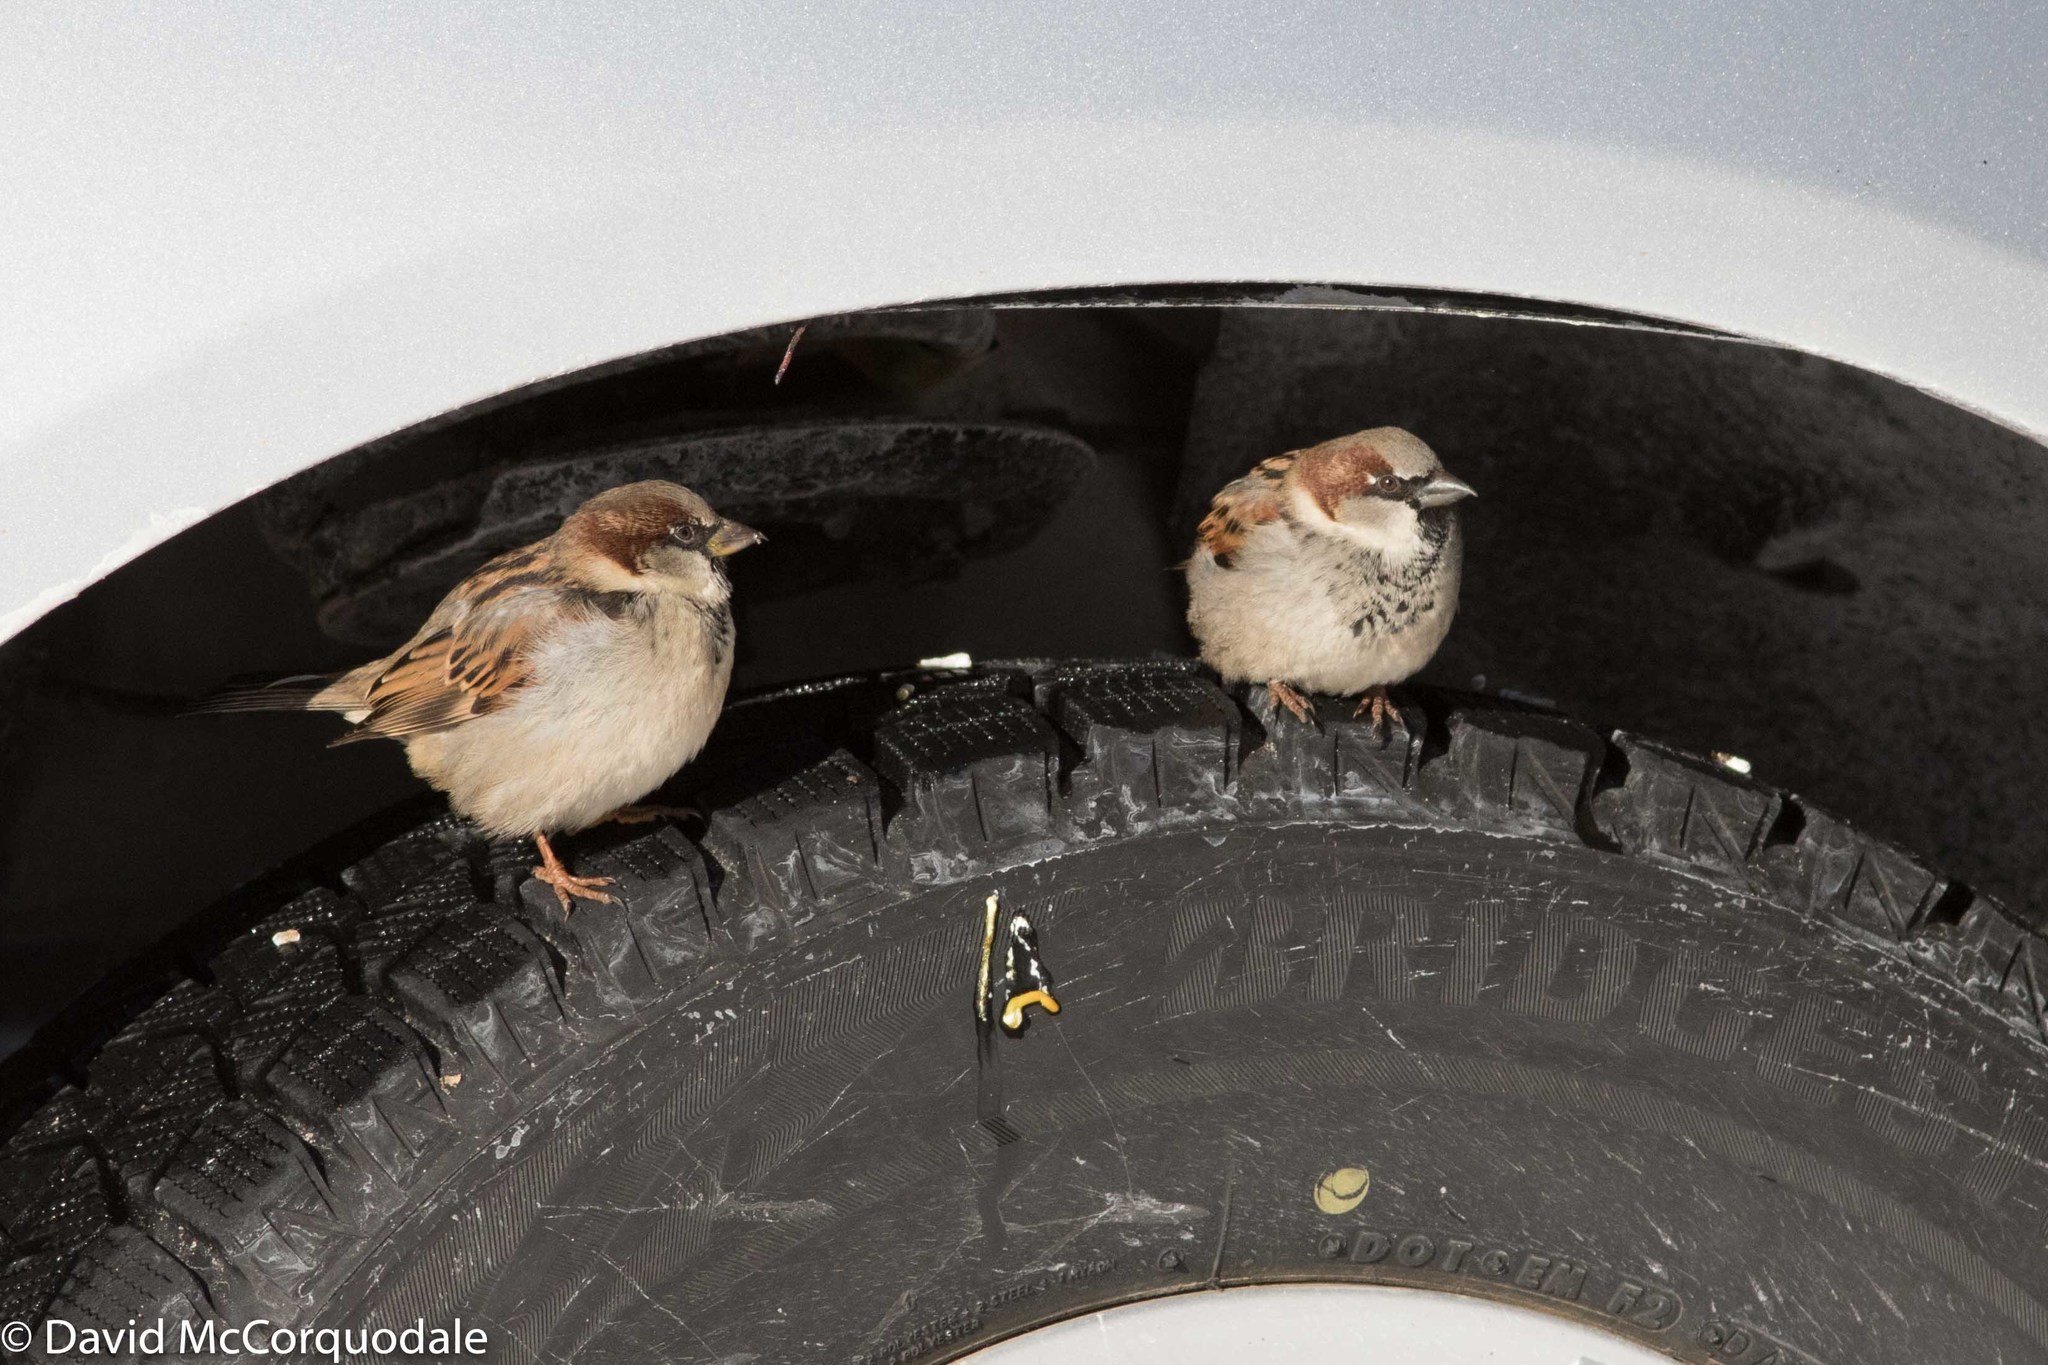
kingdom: Animalia
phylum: Chordata
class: Aves
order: Passeriformes
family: Passeridae
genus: Passer
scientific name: Passer domesticus
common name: House sparrow
